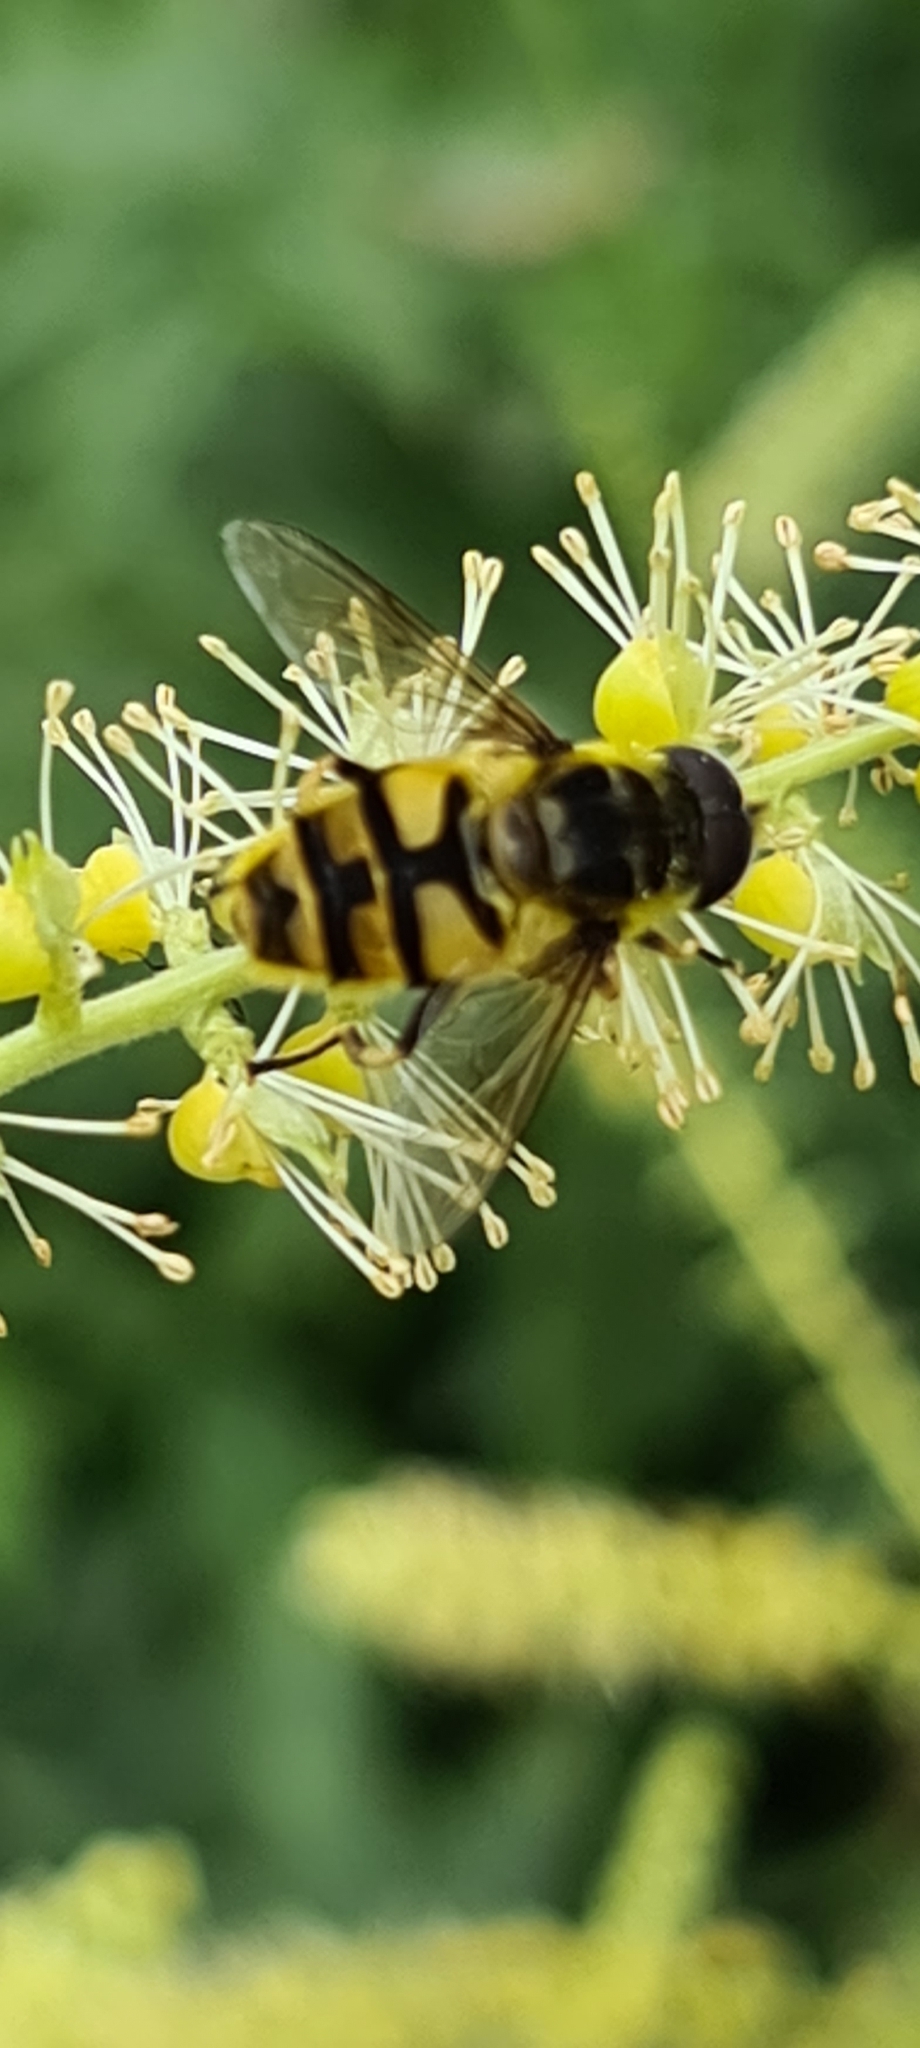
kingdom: Animalia
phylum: Arthropoda
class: Insecta
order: Diptera
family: Syrphidae
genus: Myathropa
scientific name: Myathropa florea
